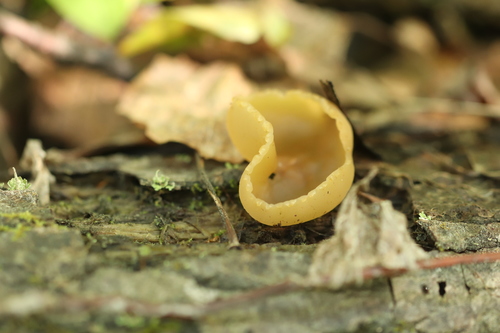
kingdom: Fungi
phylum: Ascomycota
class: Pezizomycetes
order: Pezizales
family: Pezizaceae
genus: Peziza
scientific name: Peziza varia
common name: Layered cup
